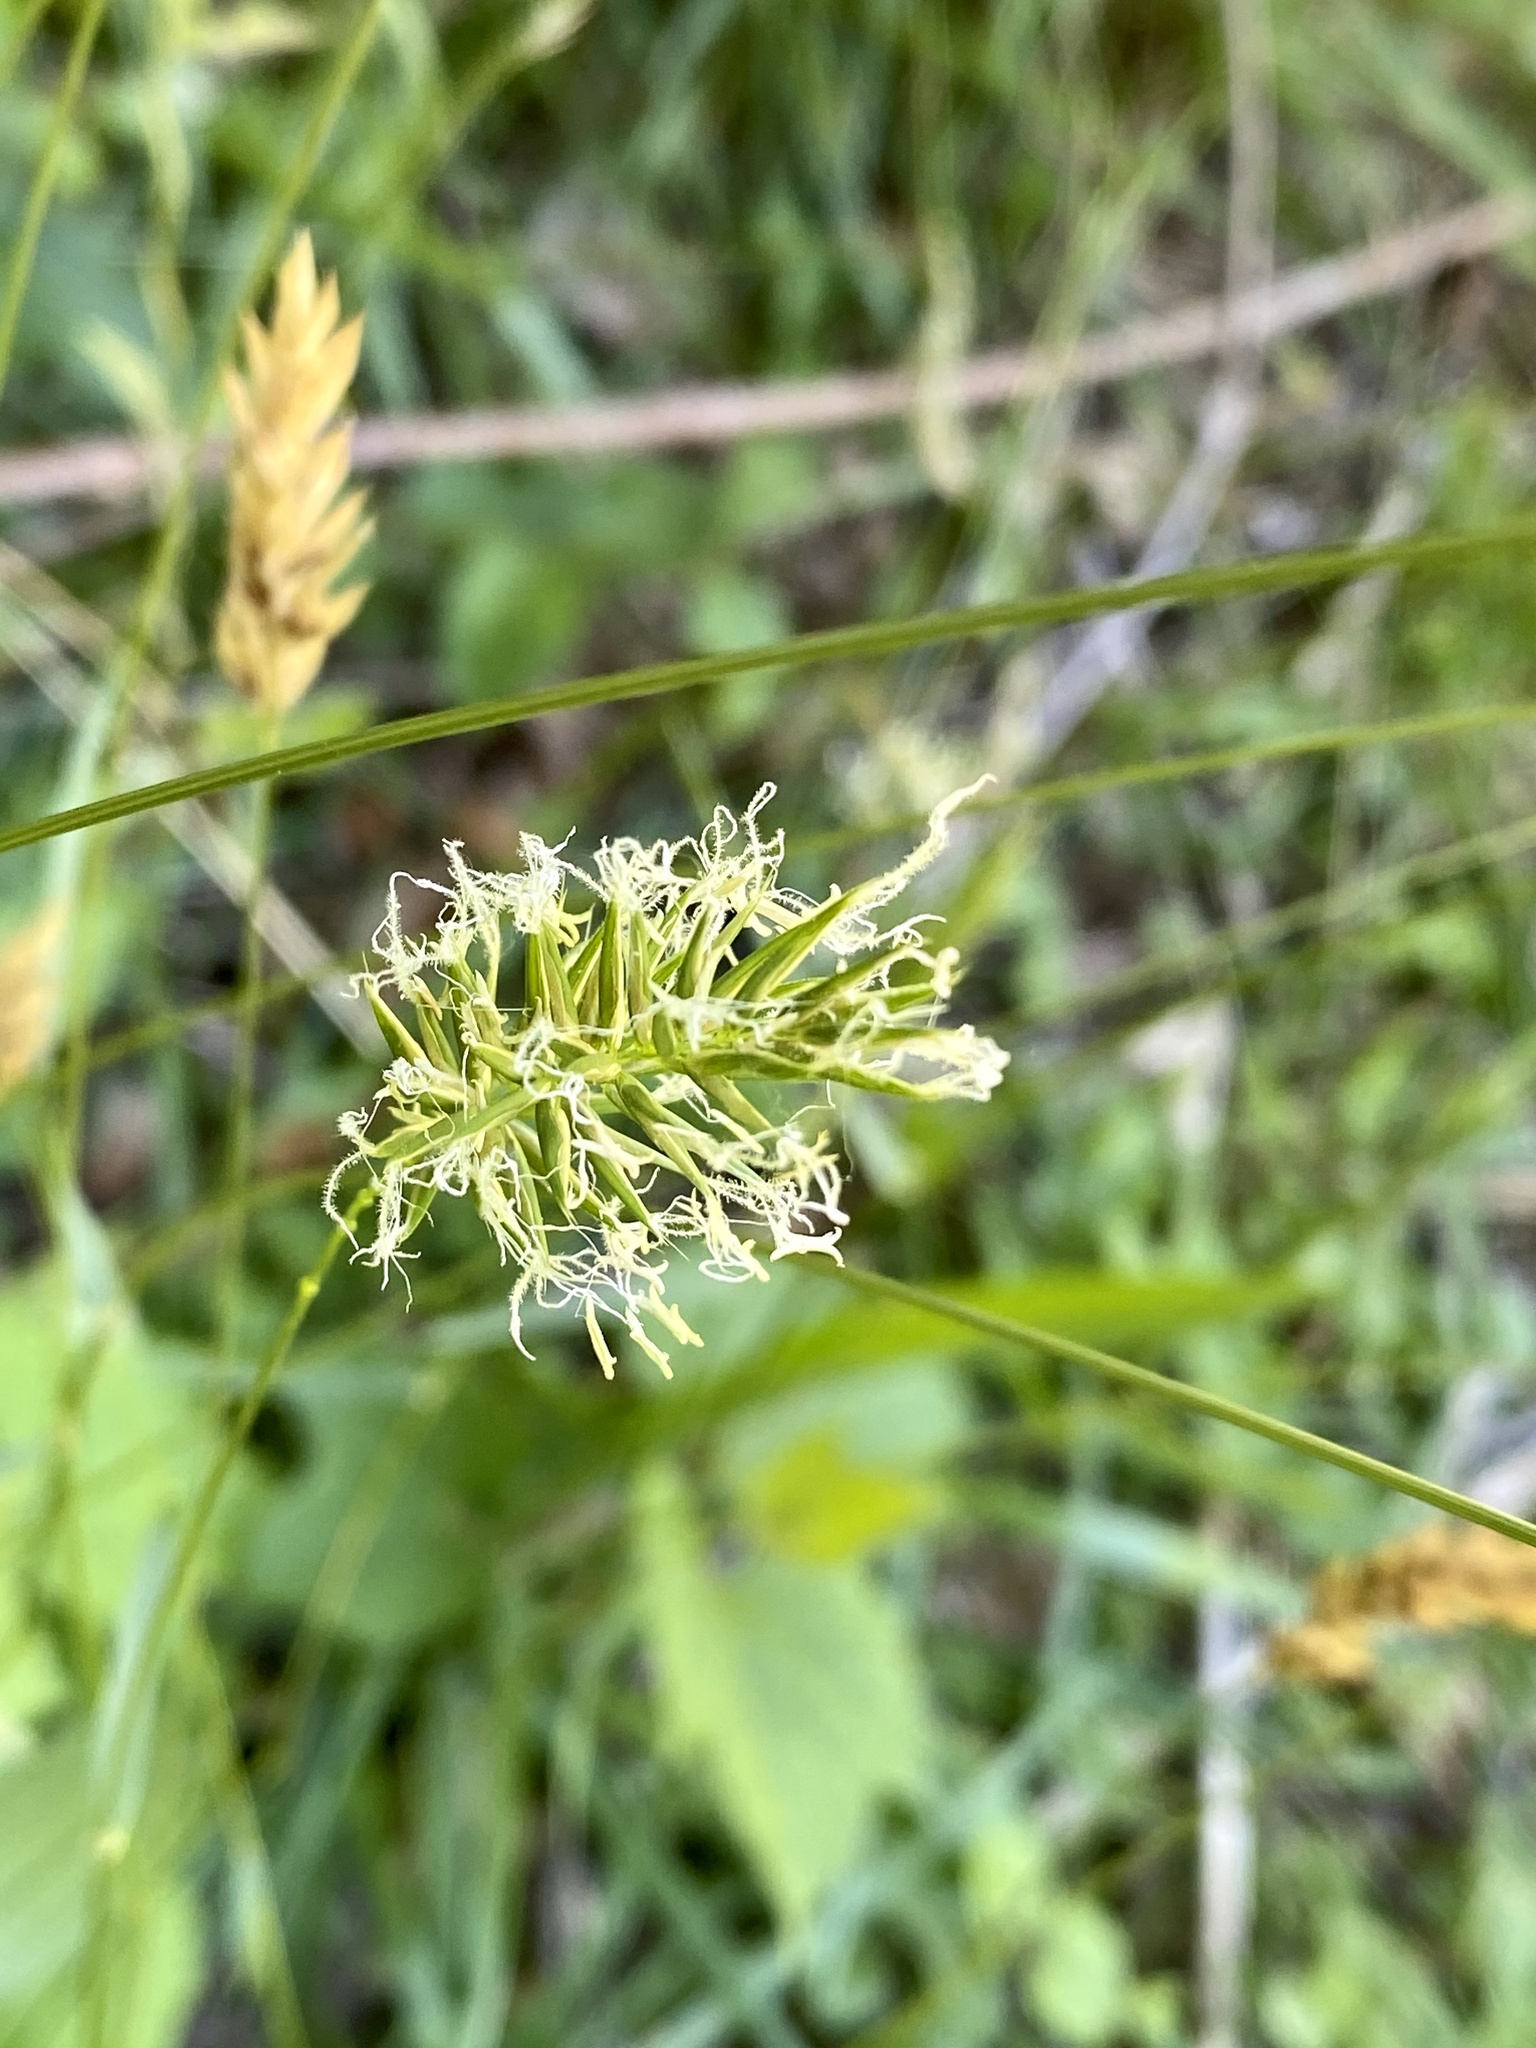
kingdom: Plantae
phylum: Tracheophyta
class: Liliopsida
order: Poales
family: Poaceae
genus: Anthoxanthum
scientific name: Anthoxanthum odoratum
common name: Sweet vernalgrass
